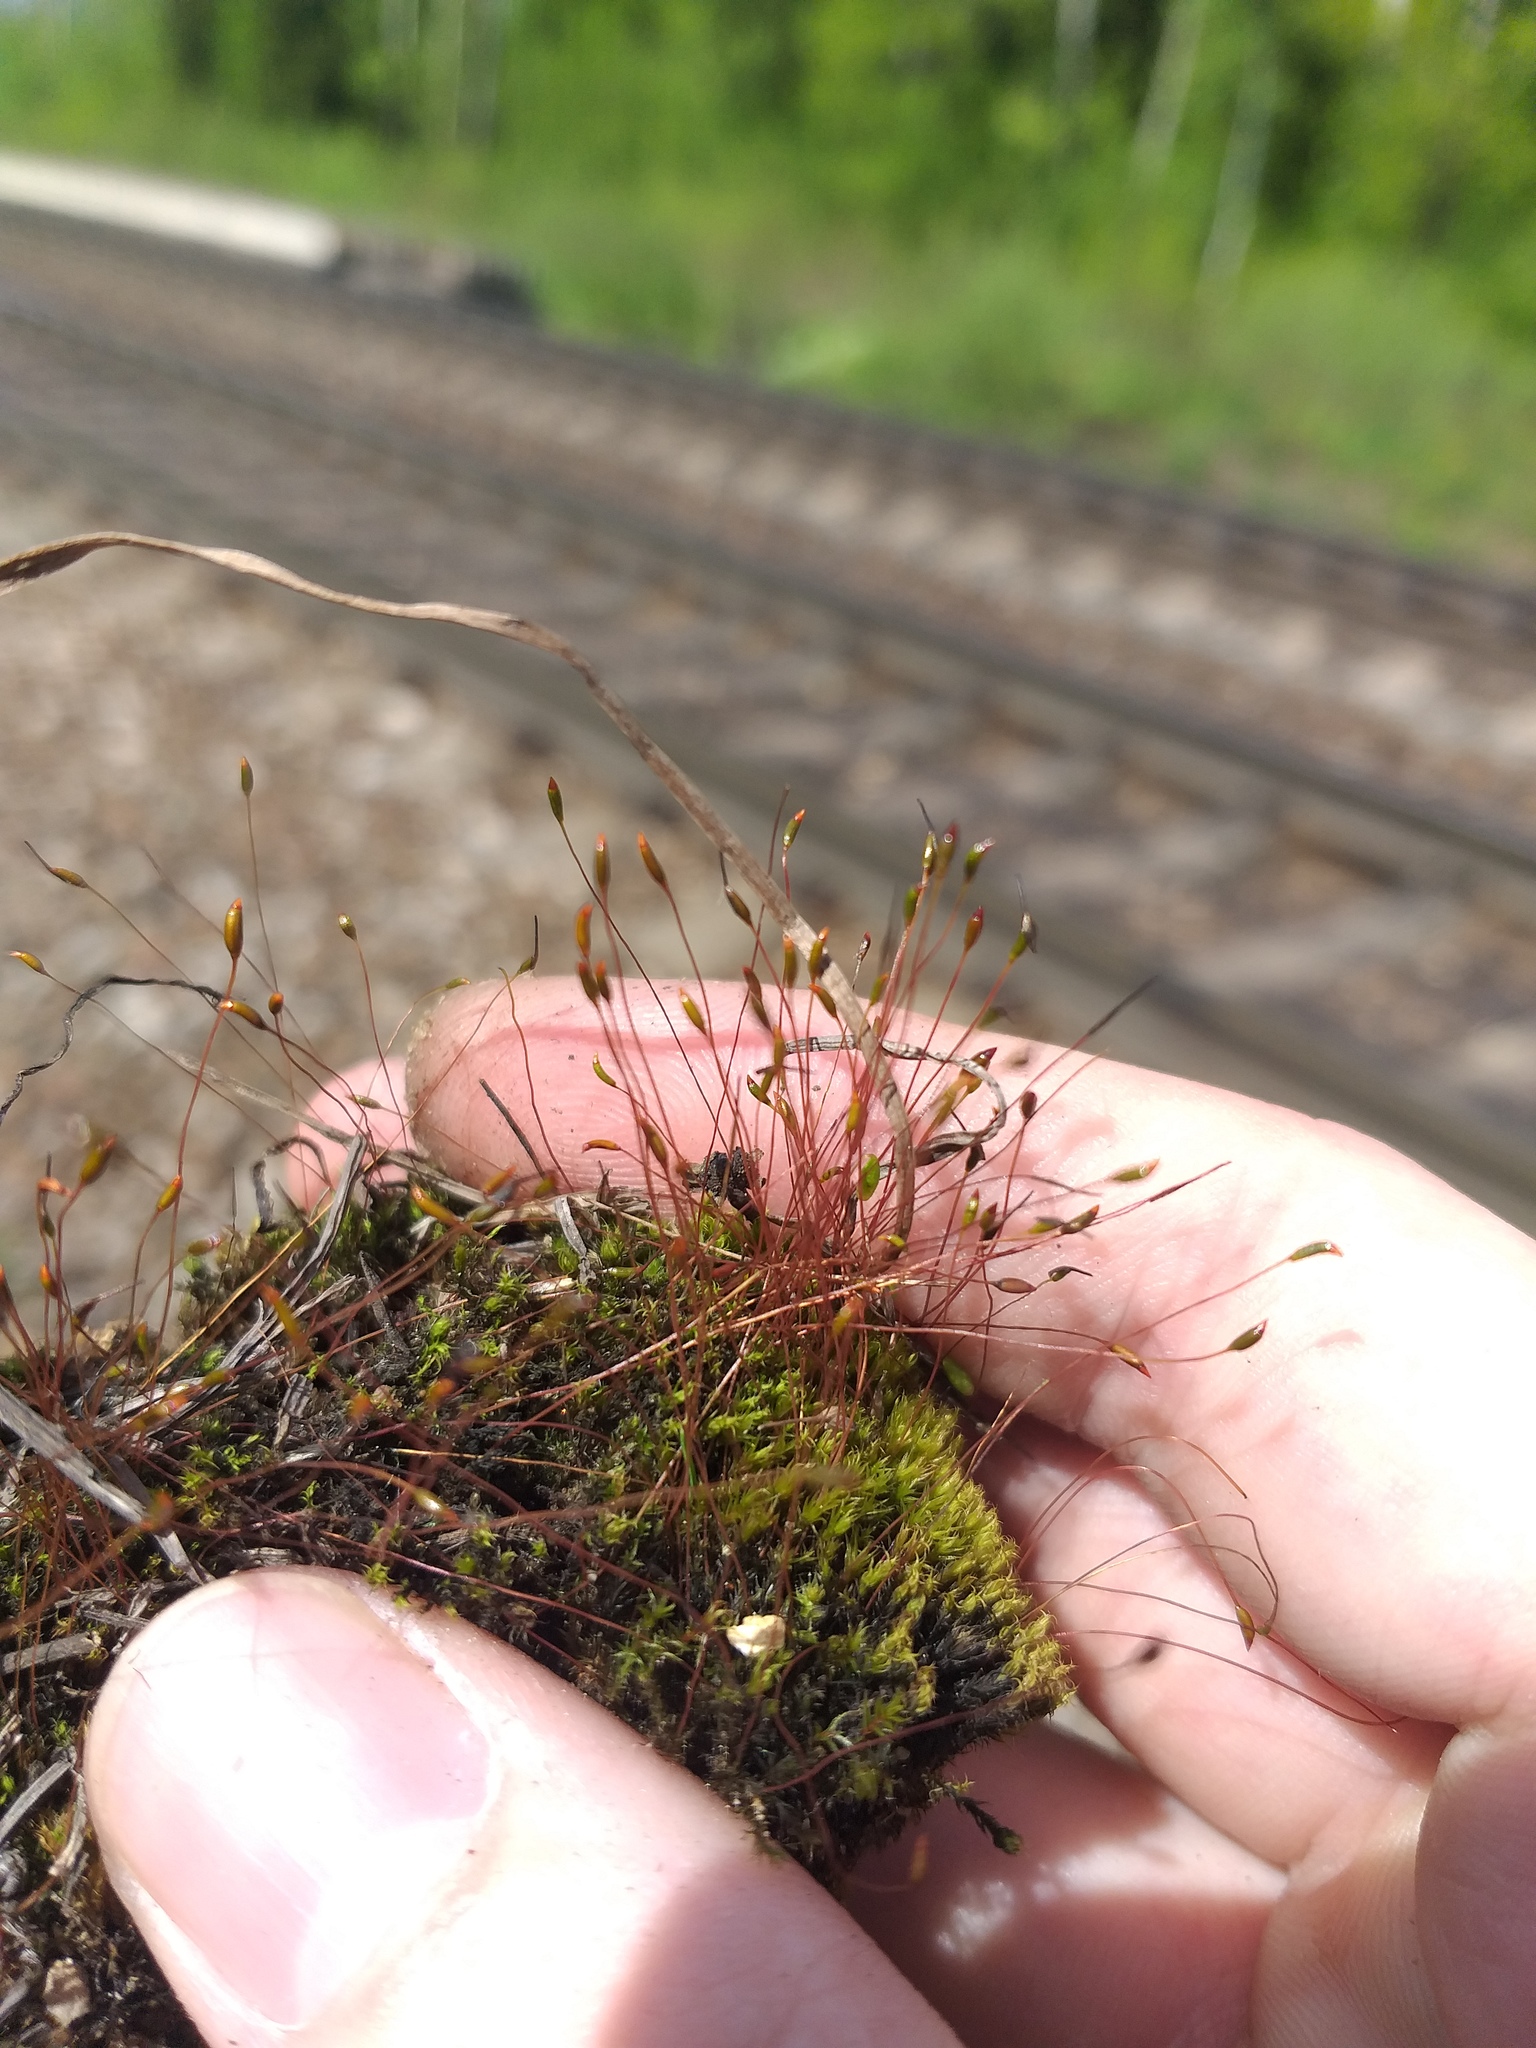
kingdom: Plantae
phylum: Bryophyta
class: Bryopsida
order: Dicranales
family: Ditrichaceae
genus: Ceratodon
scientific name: Ceratodon purpureus
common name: Redshank
